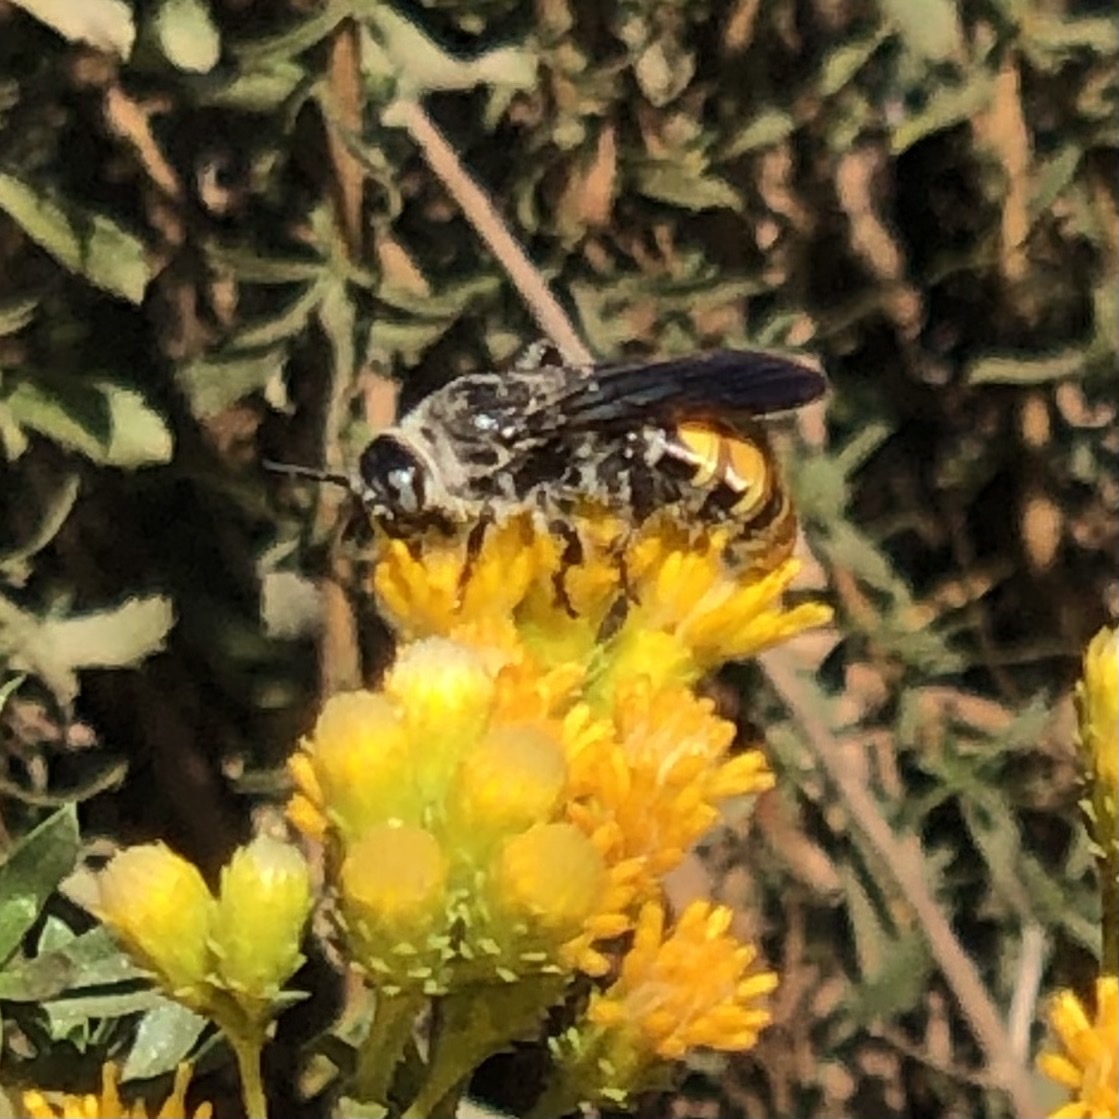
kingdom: Animalia
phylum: Arthropoda
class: Insecta
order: Hymenoptera
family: Scoliidae
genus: Dielis
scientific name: Dielis tolteca
